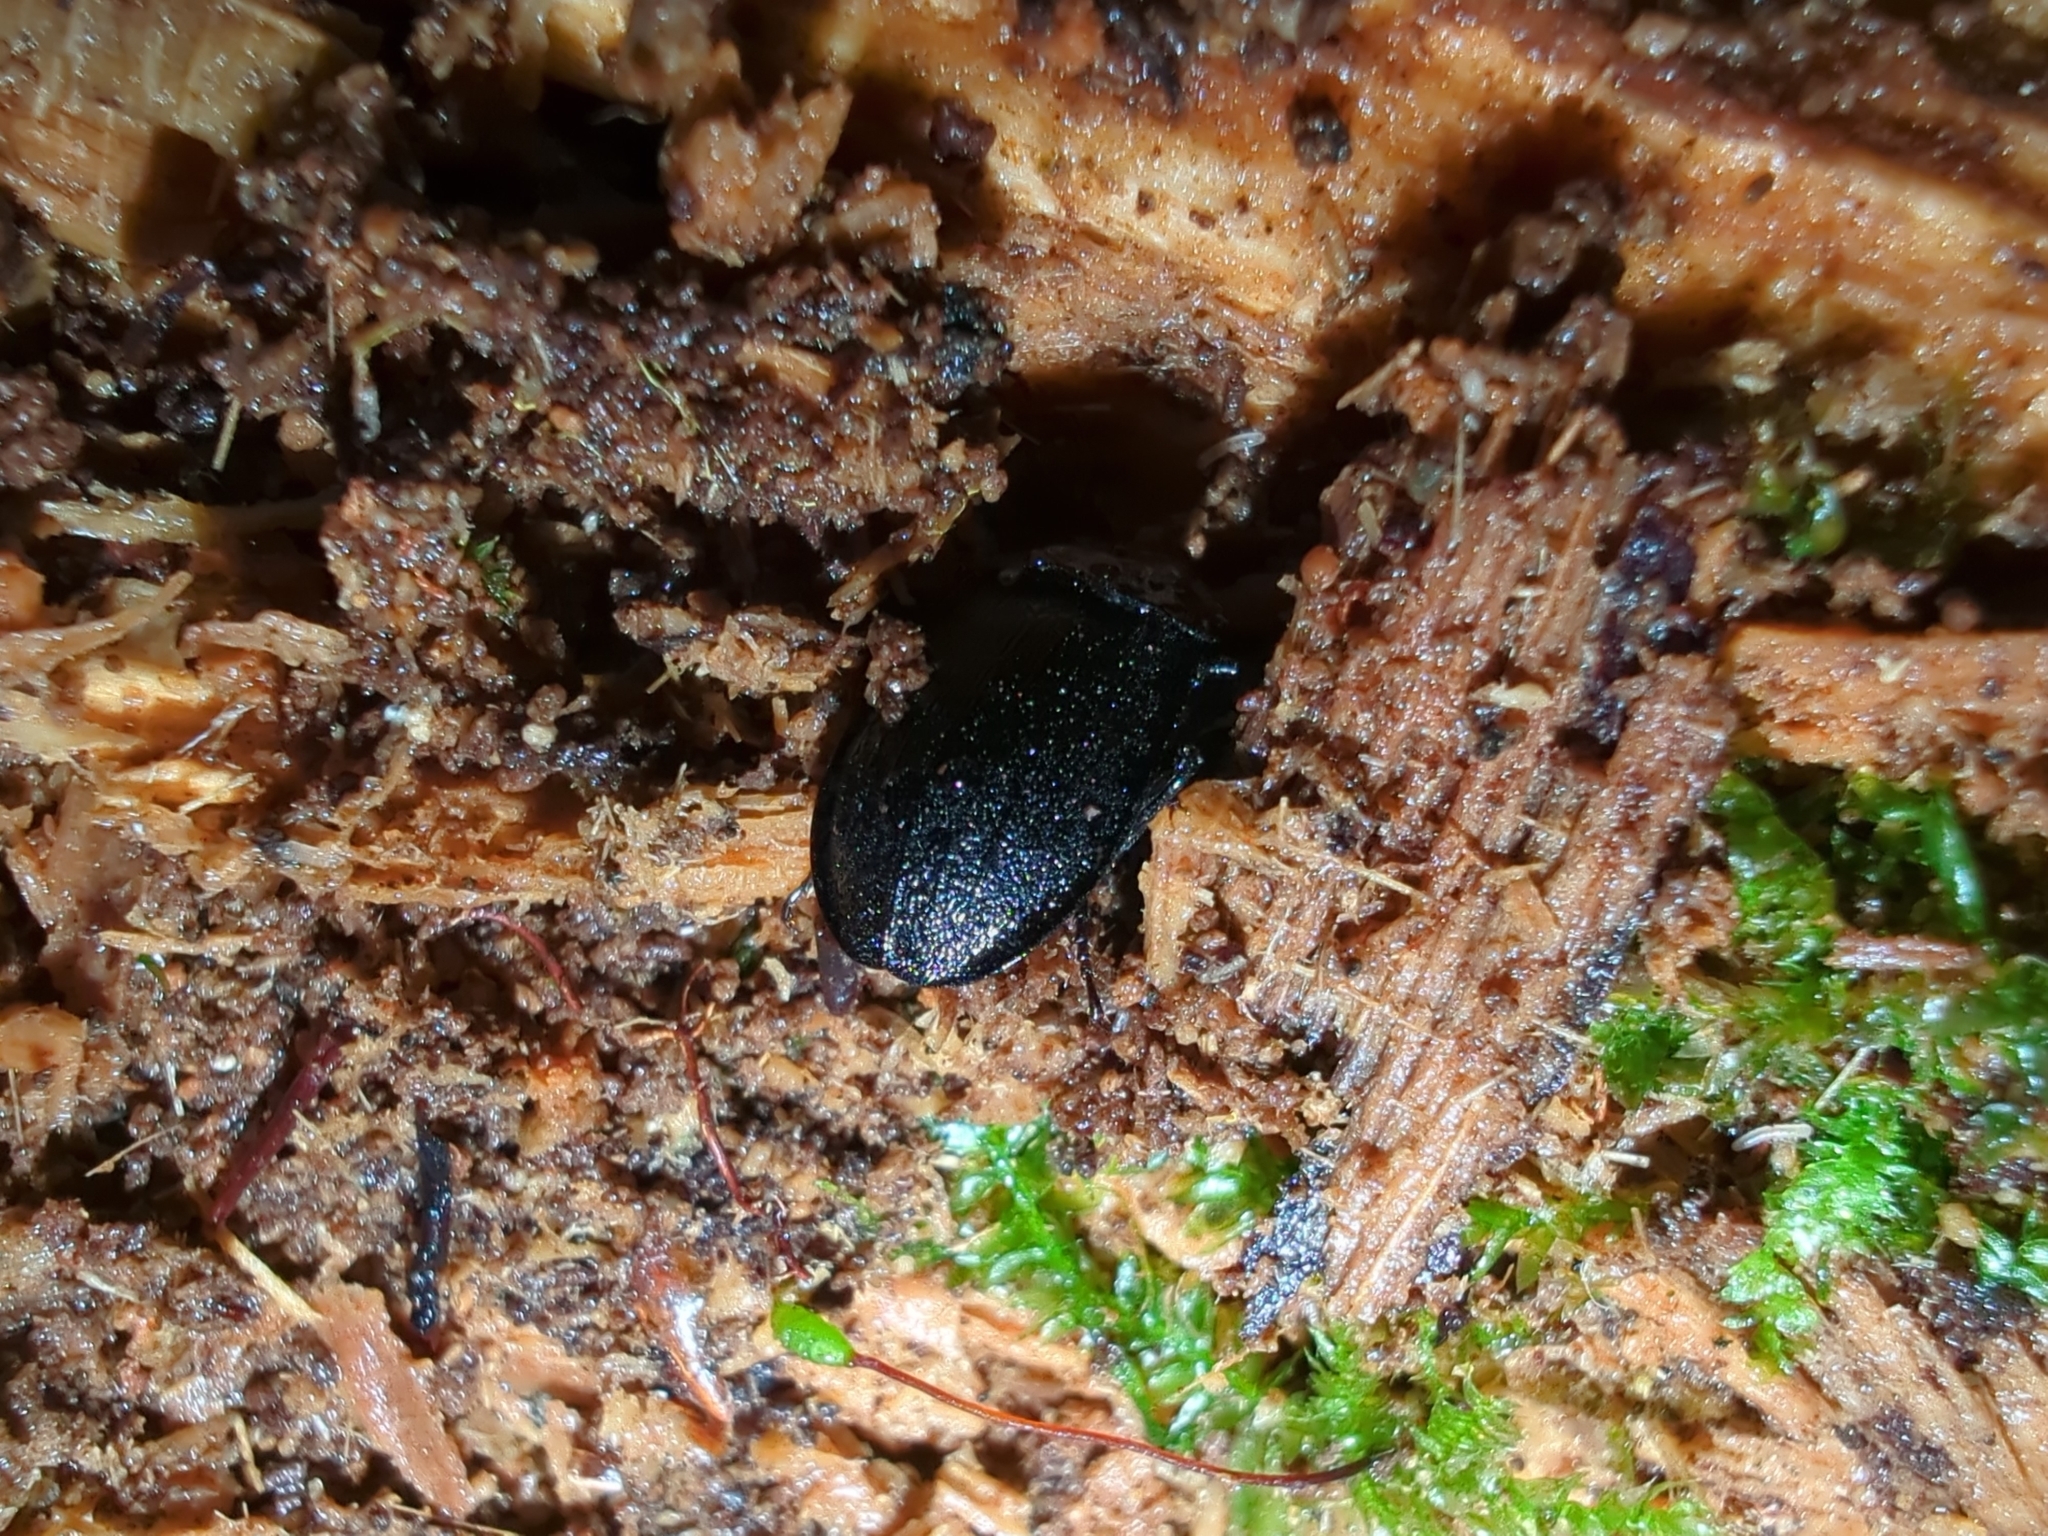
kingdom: Animalia
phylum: Arthropoda
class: Insecta
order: Coleoptera
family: Staphylinidae
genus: Silpha
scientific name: Silpha atrata
